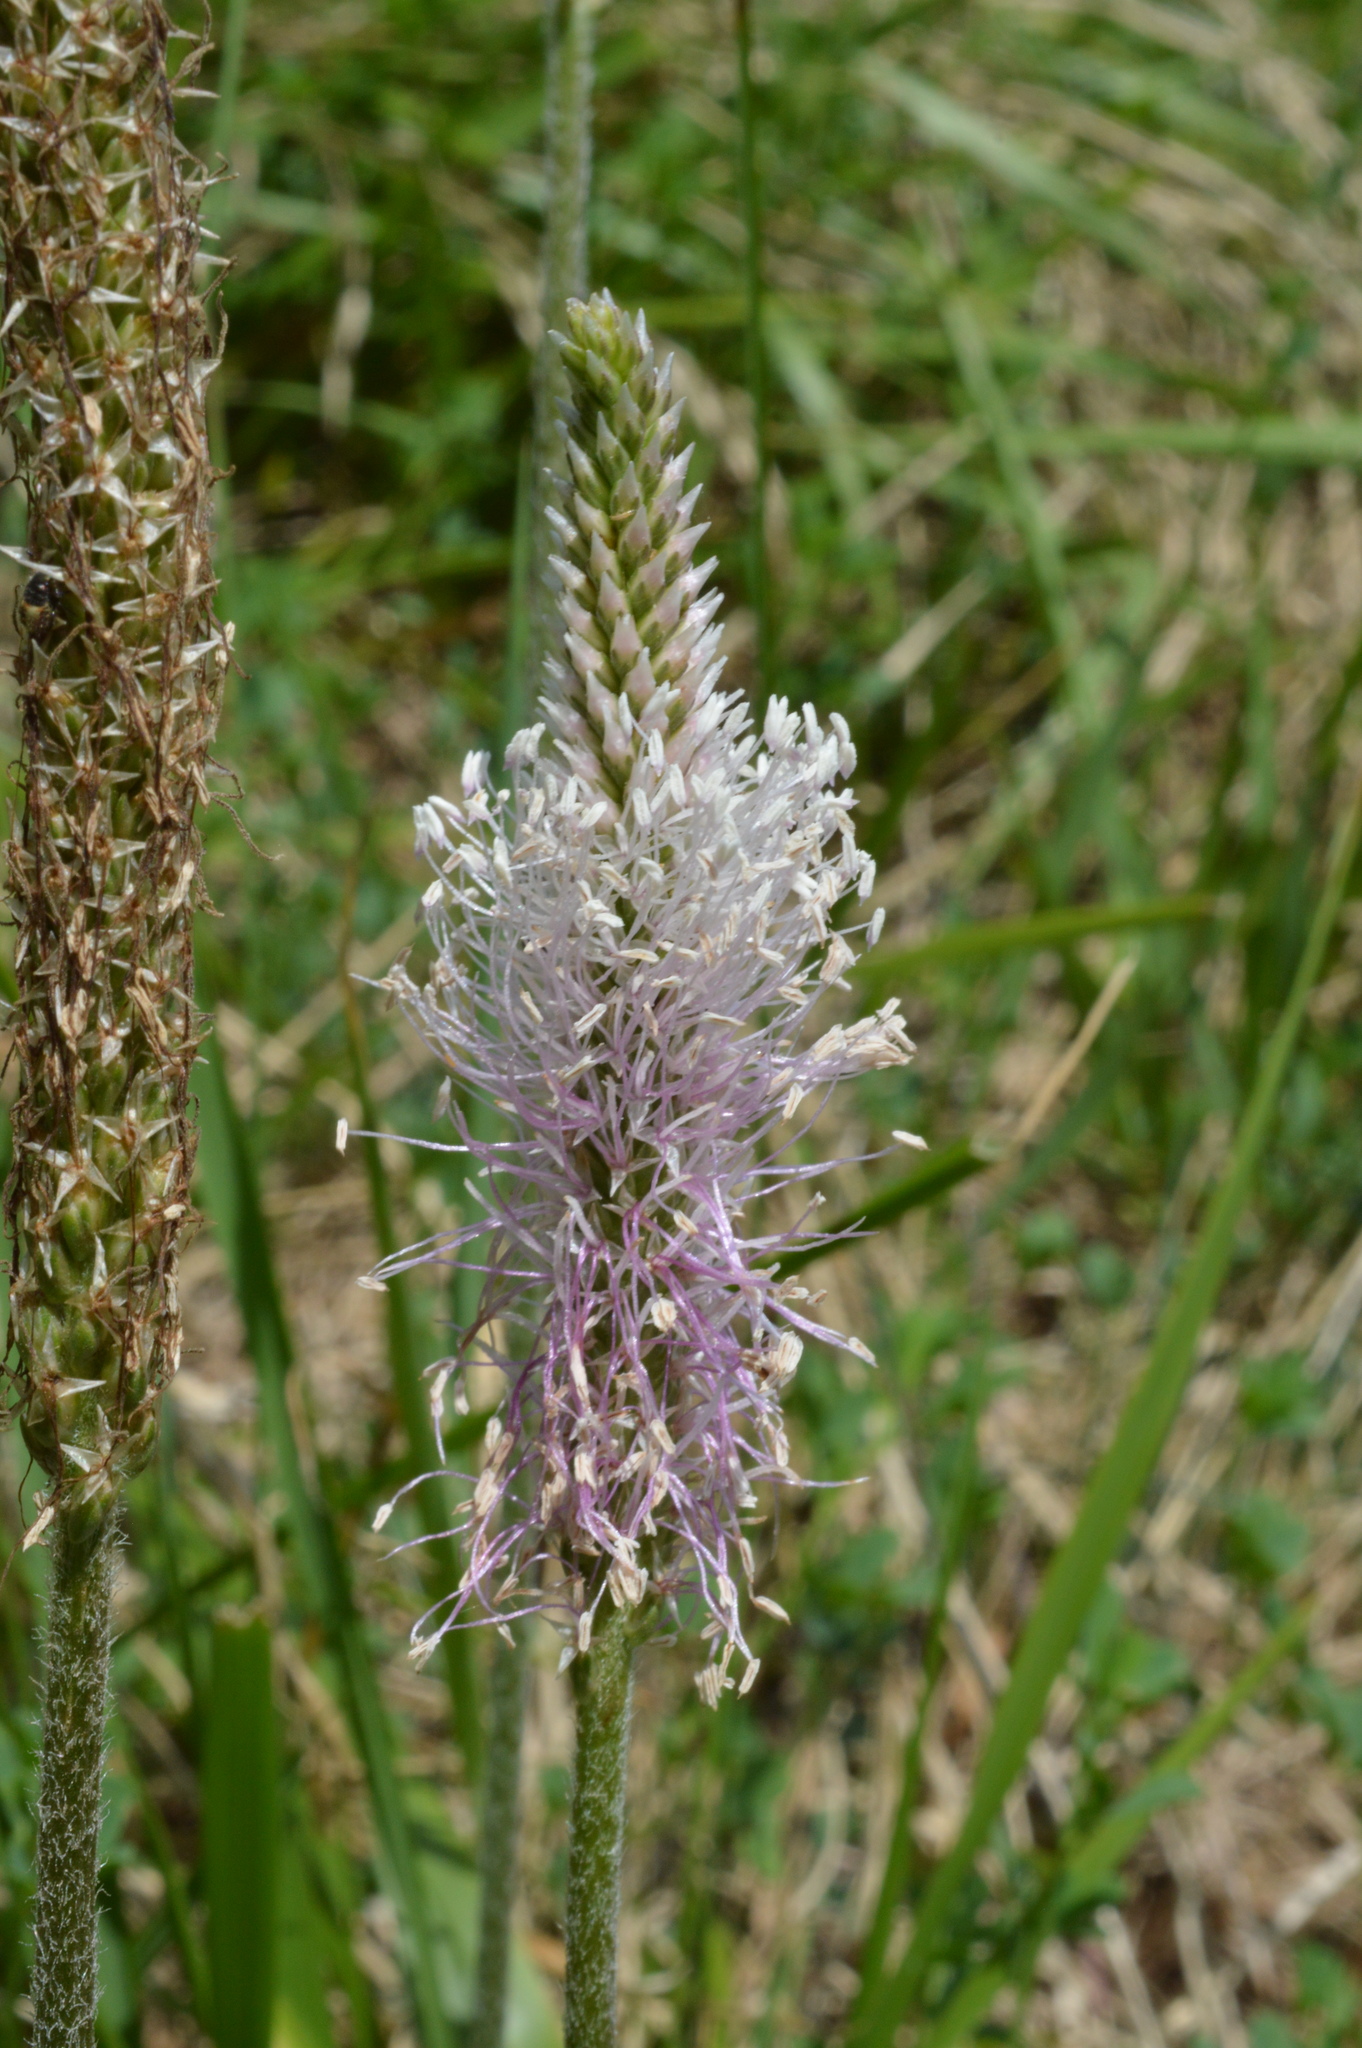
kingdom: Plantae
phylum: Tracheophyta
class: Magnoliopsida
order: Lamiales
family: Plantaginaceae
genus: Plantago
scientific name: Plantago media
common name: Hoary plantain
